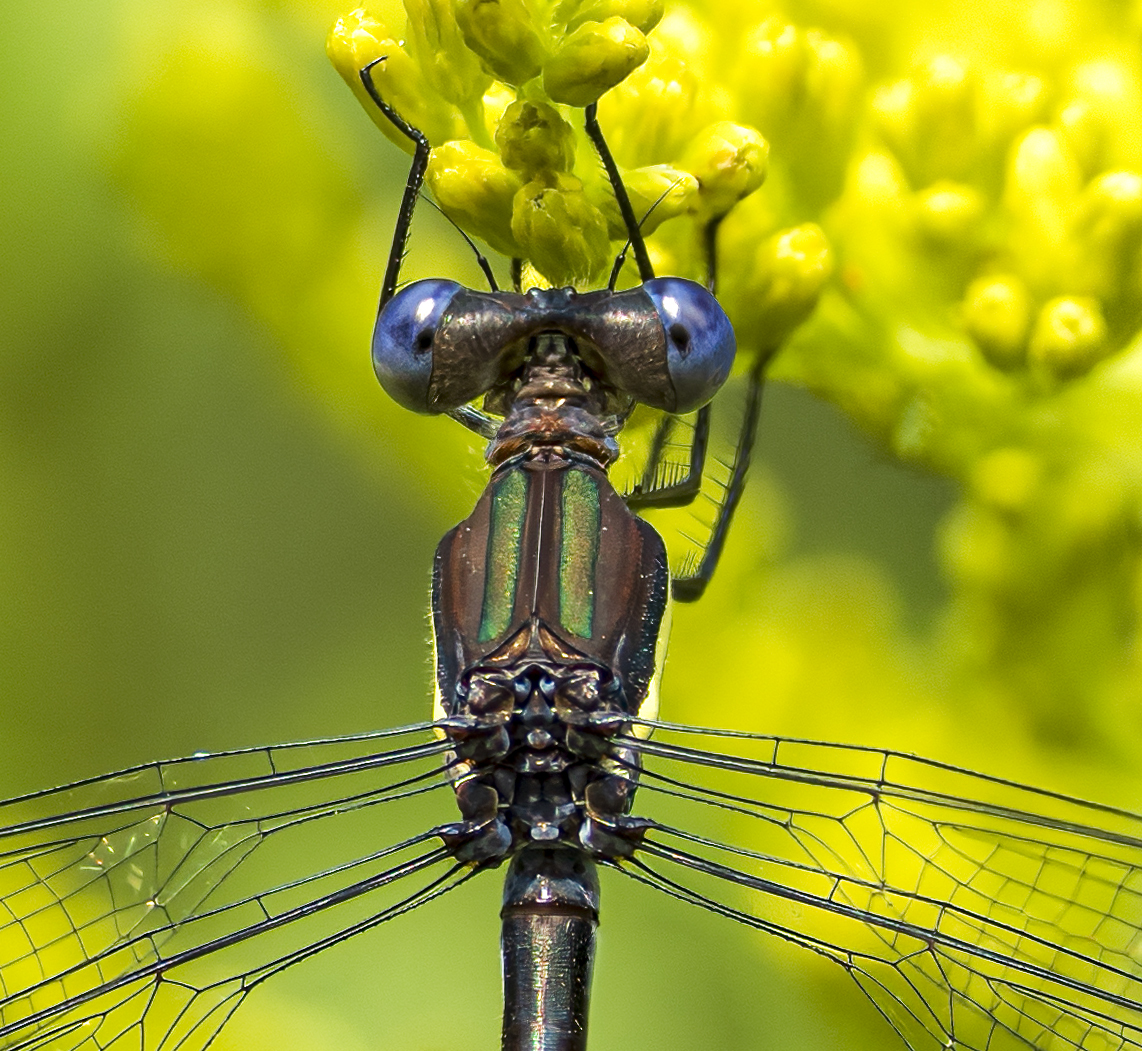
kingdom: Animalia
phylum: Arthropoda
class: Insecta
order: Odonata
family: Lestidae
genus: Archilestes
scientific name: Archilestes grandis
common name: Great spreadwing
